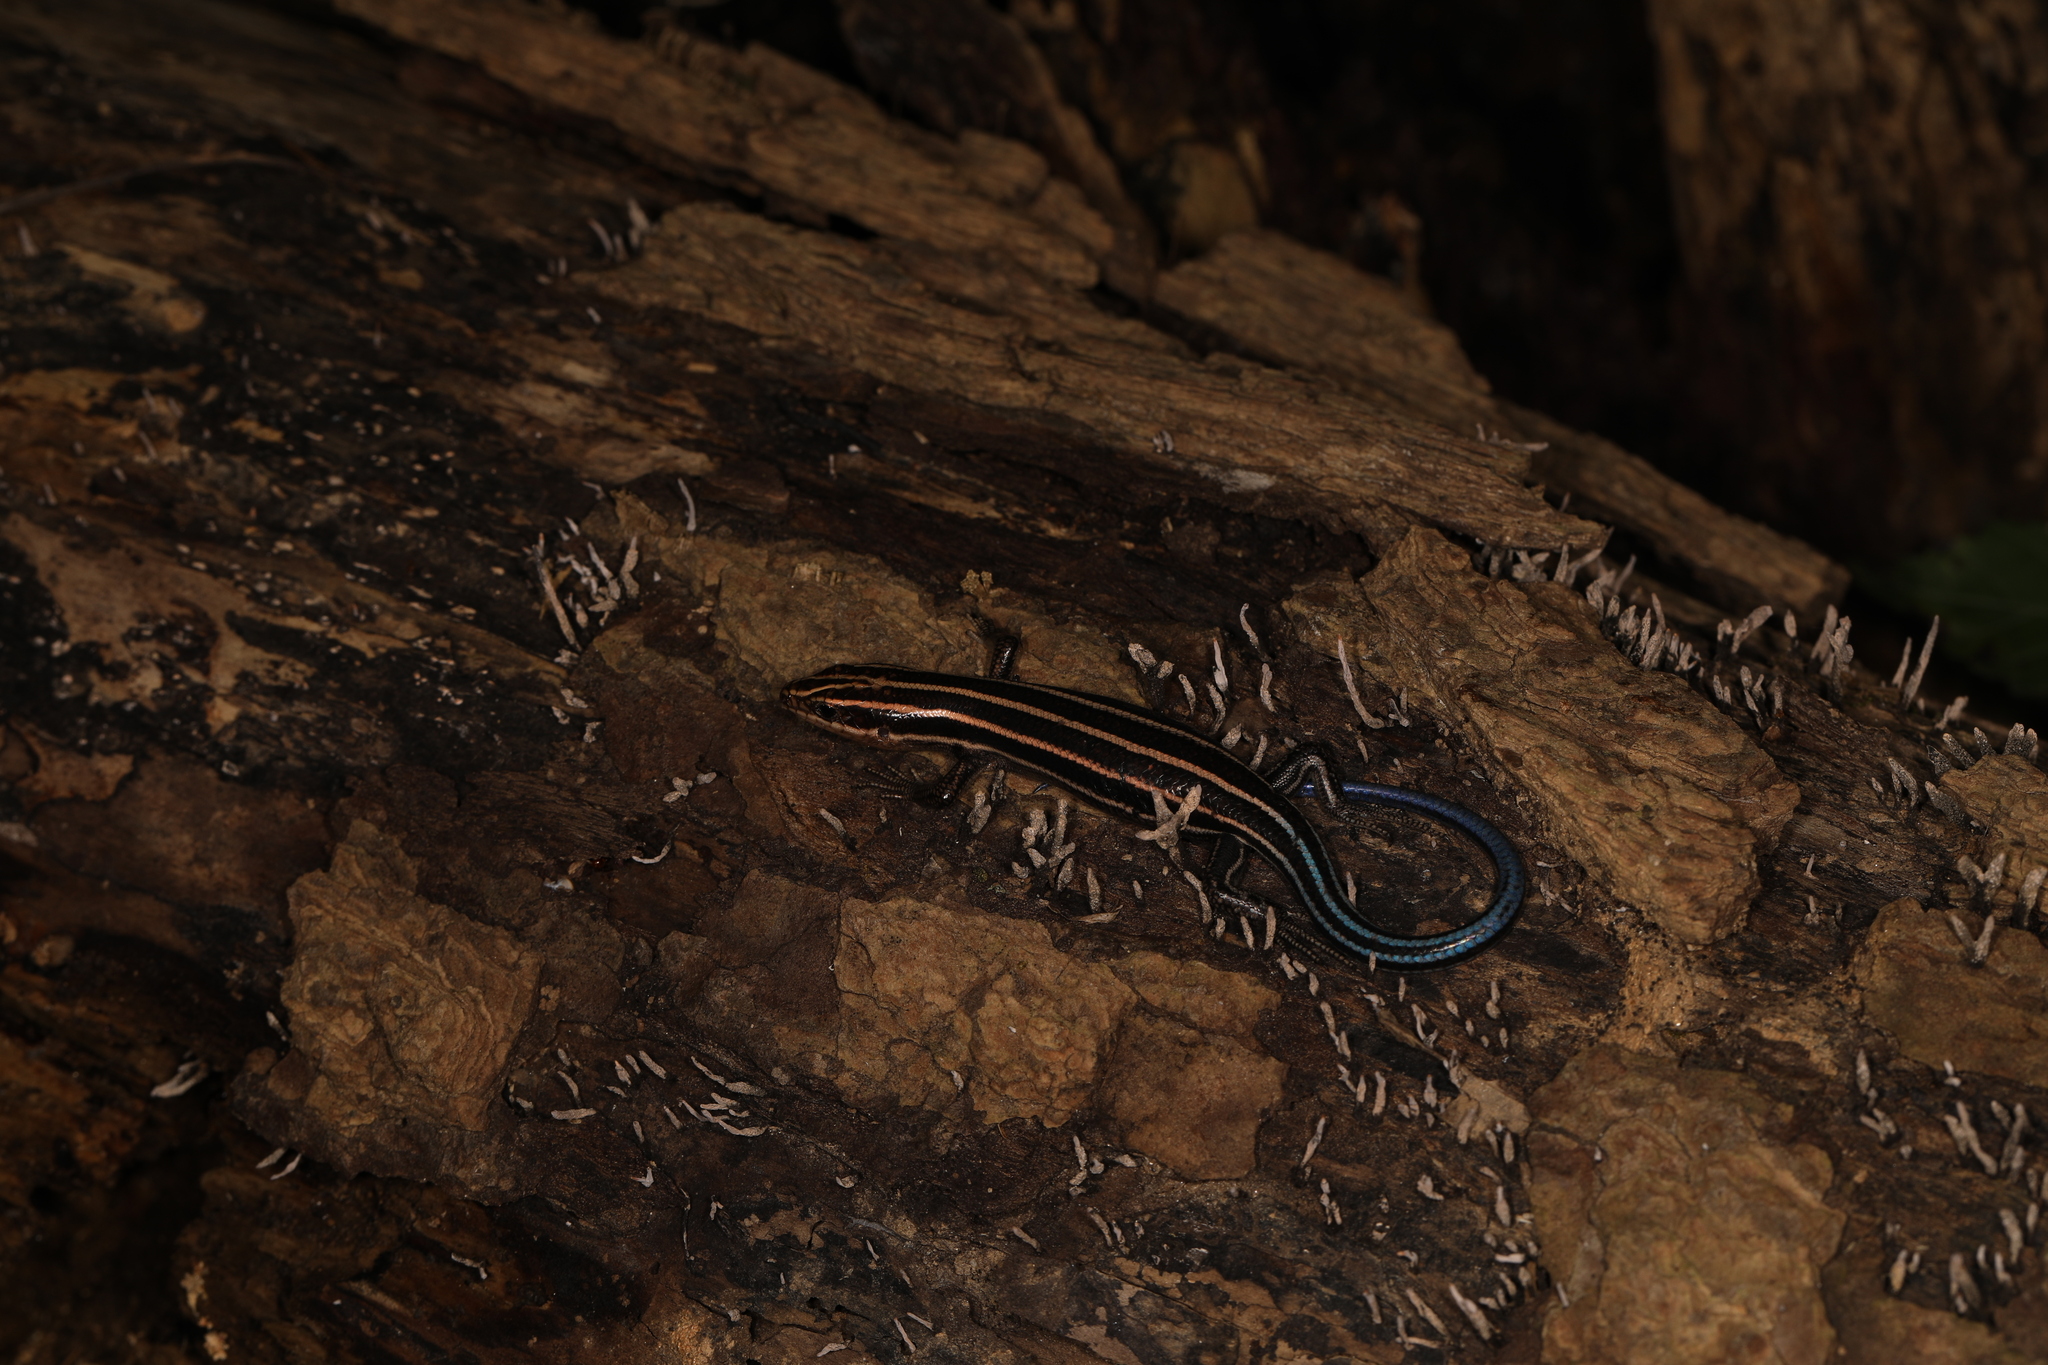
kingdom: Animalia
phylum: Chordata
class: Squamata
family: Scincidae
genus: Plestiodon
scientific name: Plestiodon fasciatus
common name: Five-lined skink
